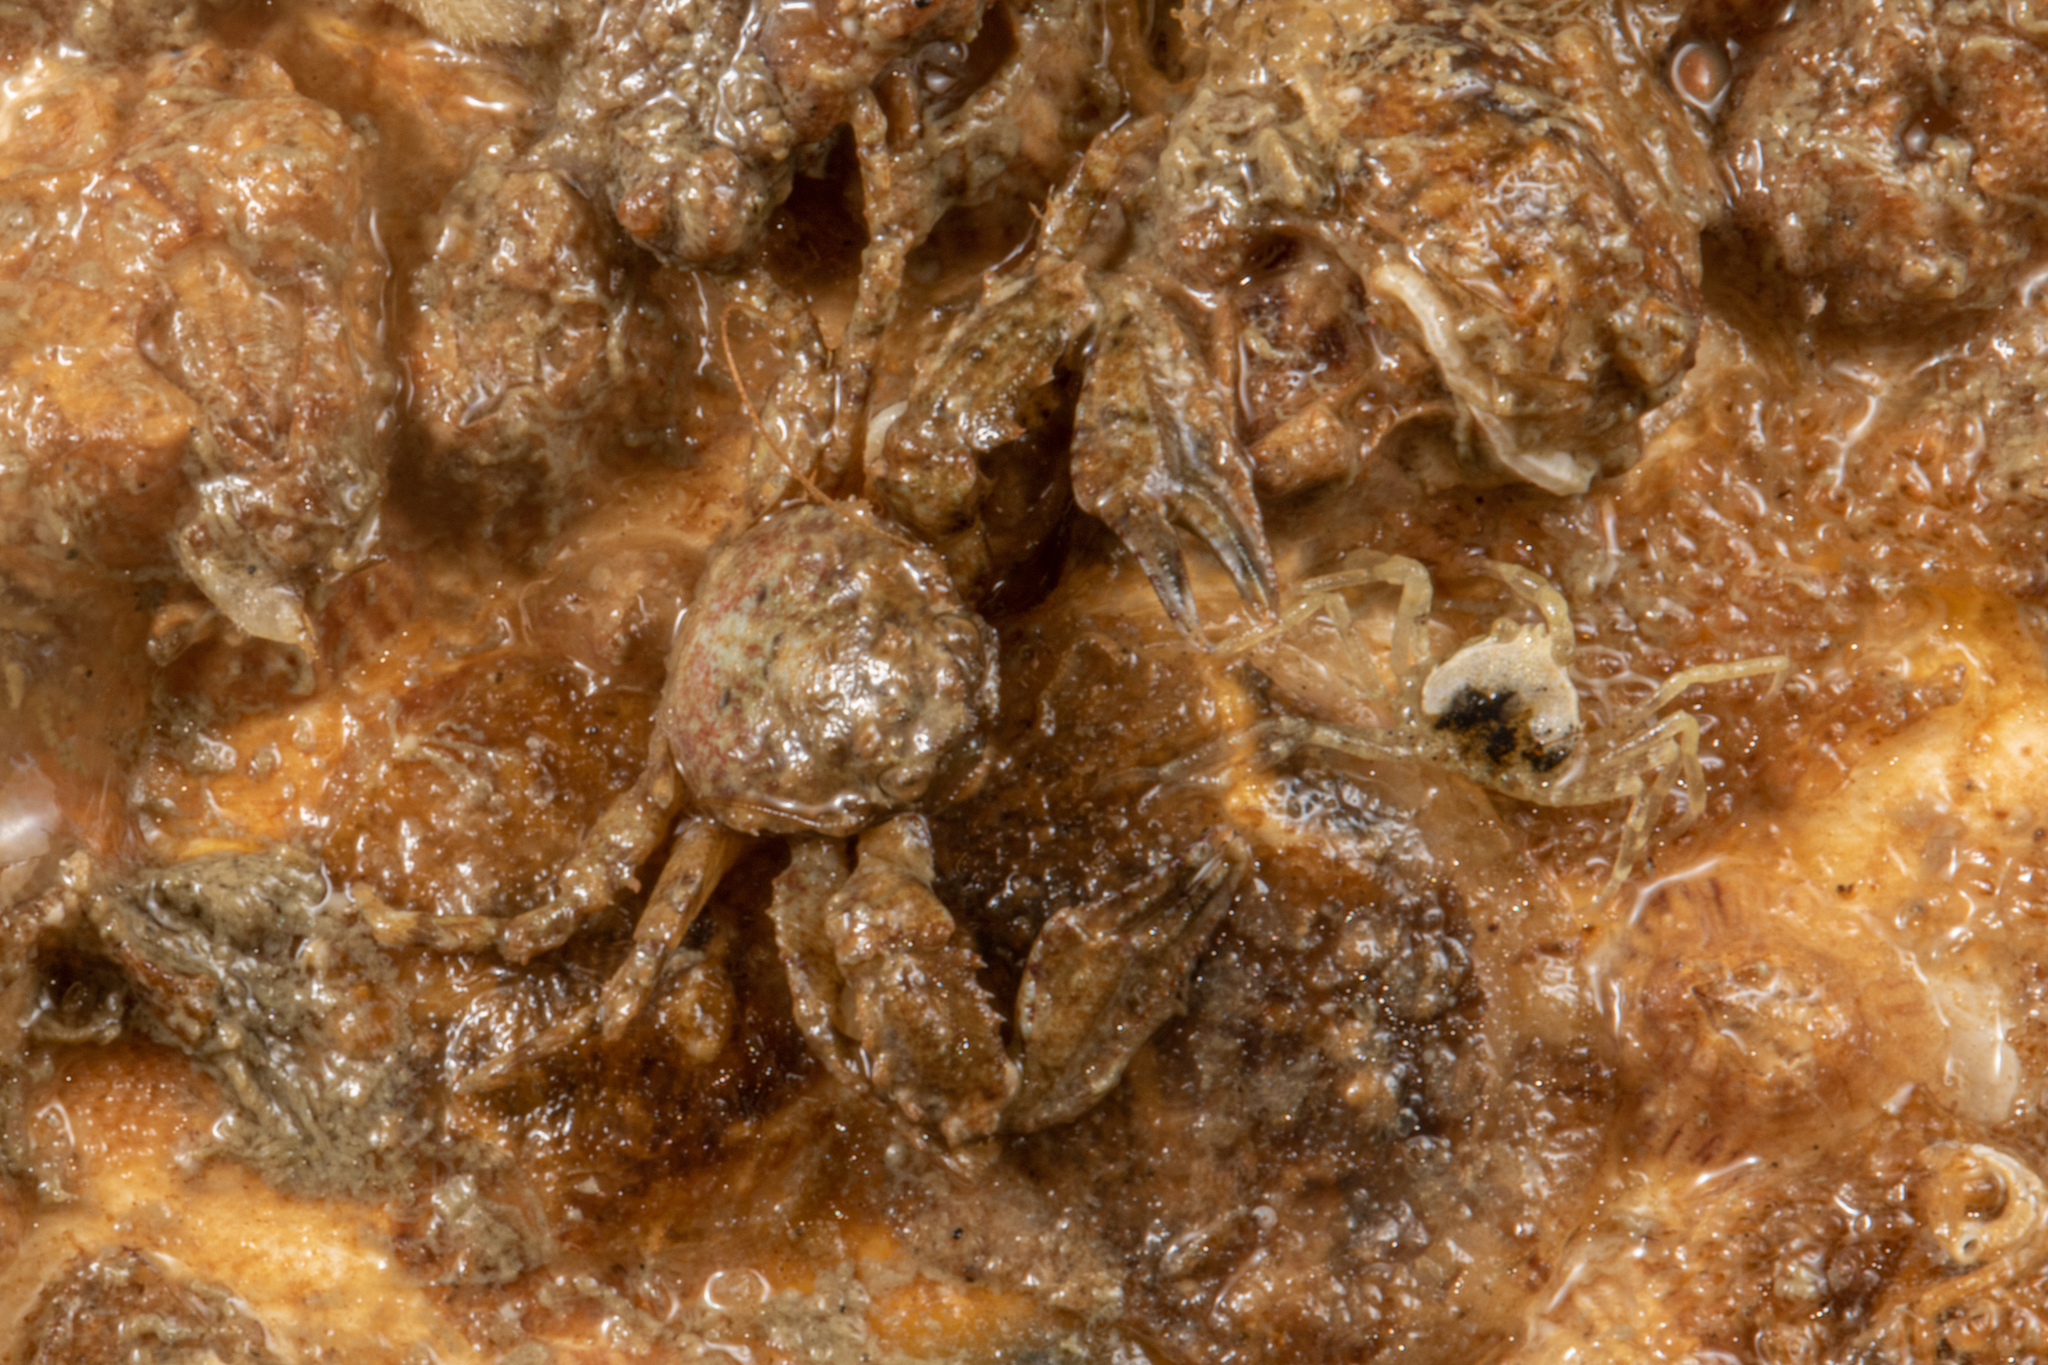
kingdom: Animalia
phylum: Arthropoda
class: Malacostraca
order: Decapoda
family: Porcellanidae
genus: Petrocheles
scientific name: Petrocheles spinosus
